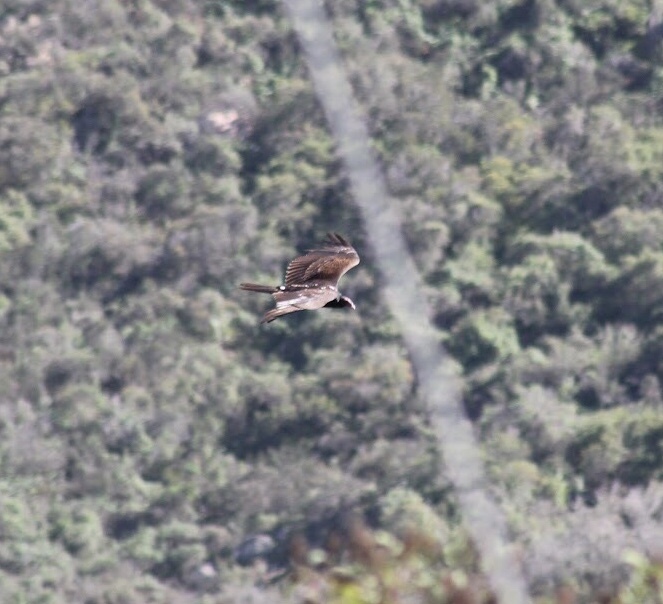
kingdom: Animalia
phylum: Chordata
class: Aves
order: Accipitriformes
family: Cathartidae
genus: Cathartes
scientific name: Cathartes aura
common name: Turkey vulture
